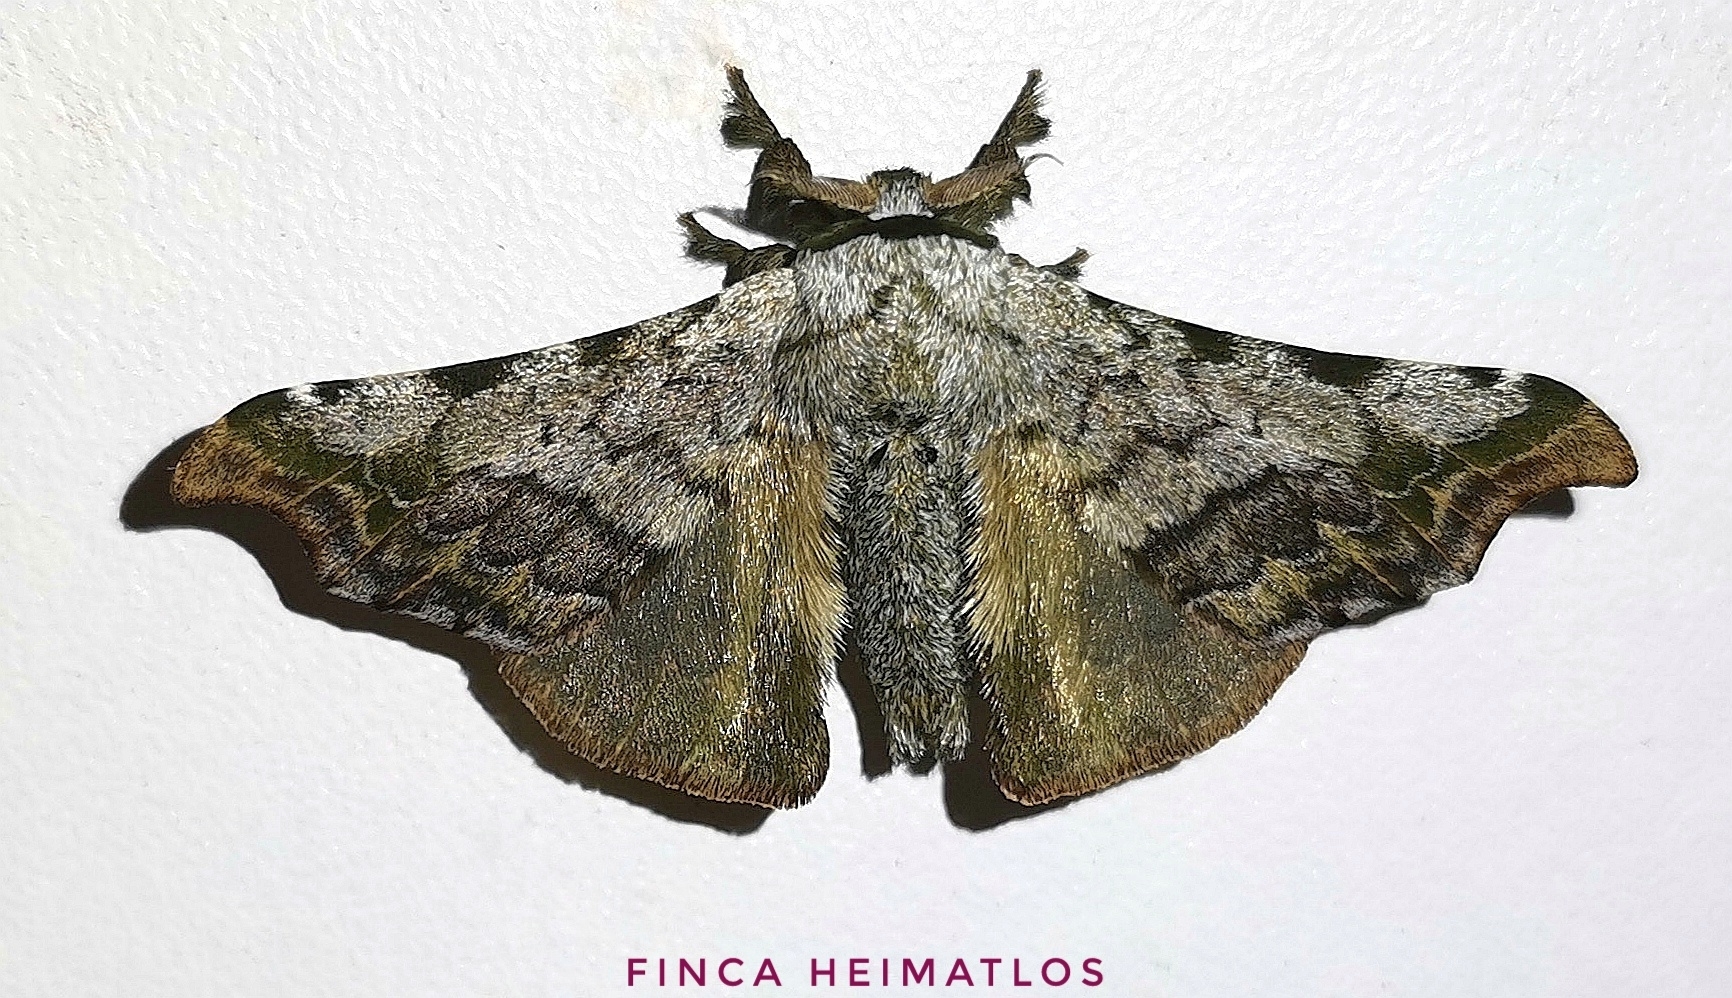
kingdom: Animalia
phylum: Arthropoda
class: Insecta
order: Lepidoptera
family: Bombycidae
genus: Quentalia
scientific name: Quentalia ephonia
